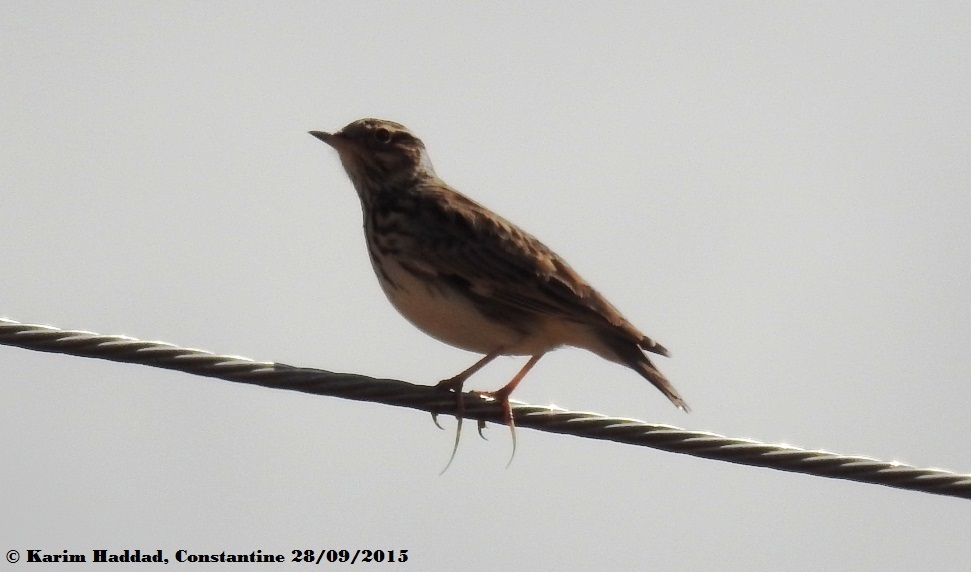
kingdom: Animalia
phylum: Chordata
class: Aves
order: Passeriformes
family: Alaudidae
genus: Lullula
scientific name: Lullula arborea
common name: Woodlark
